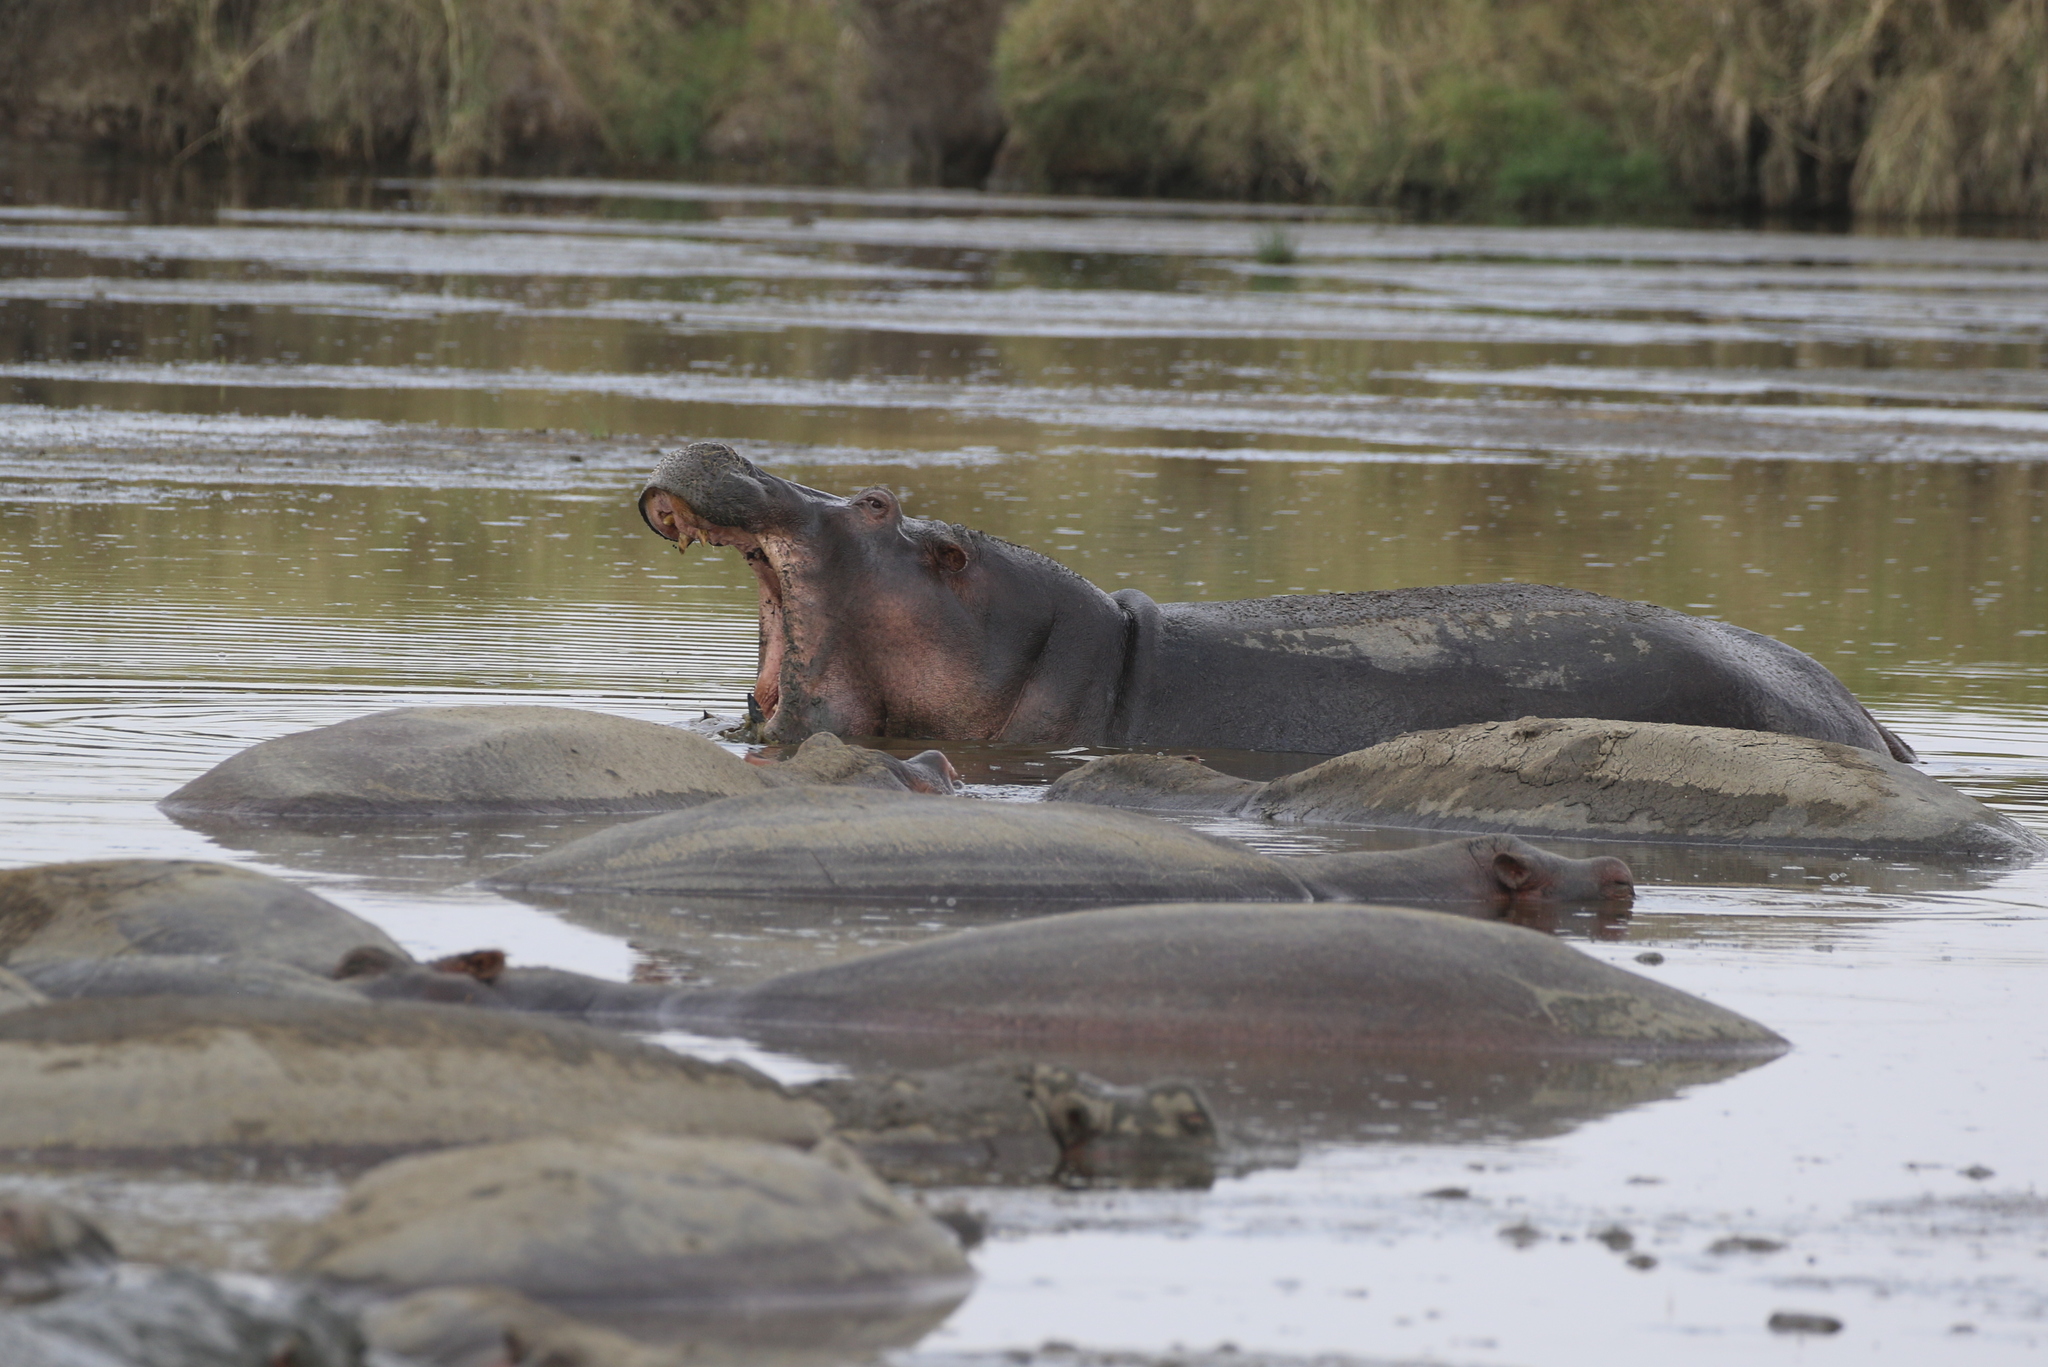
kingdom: Animalia
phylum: Chordata
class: Mammalia
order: Artiodactyla
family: Hippopotamidae
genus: Hippopotamus
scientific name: Hippopotamus amphibius
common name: Common hippopotamus
